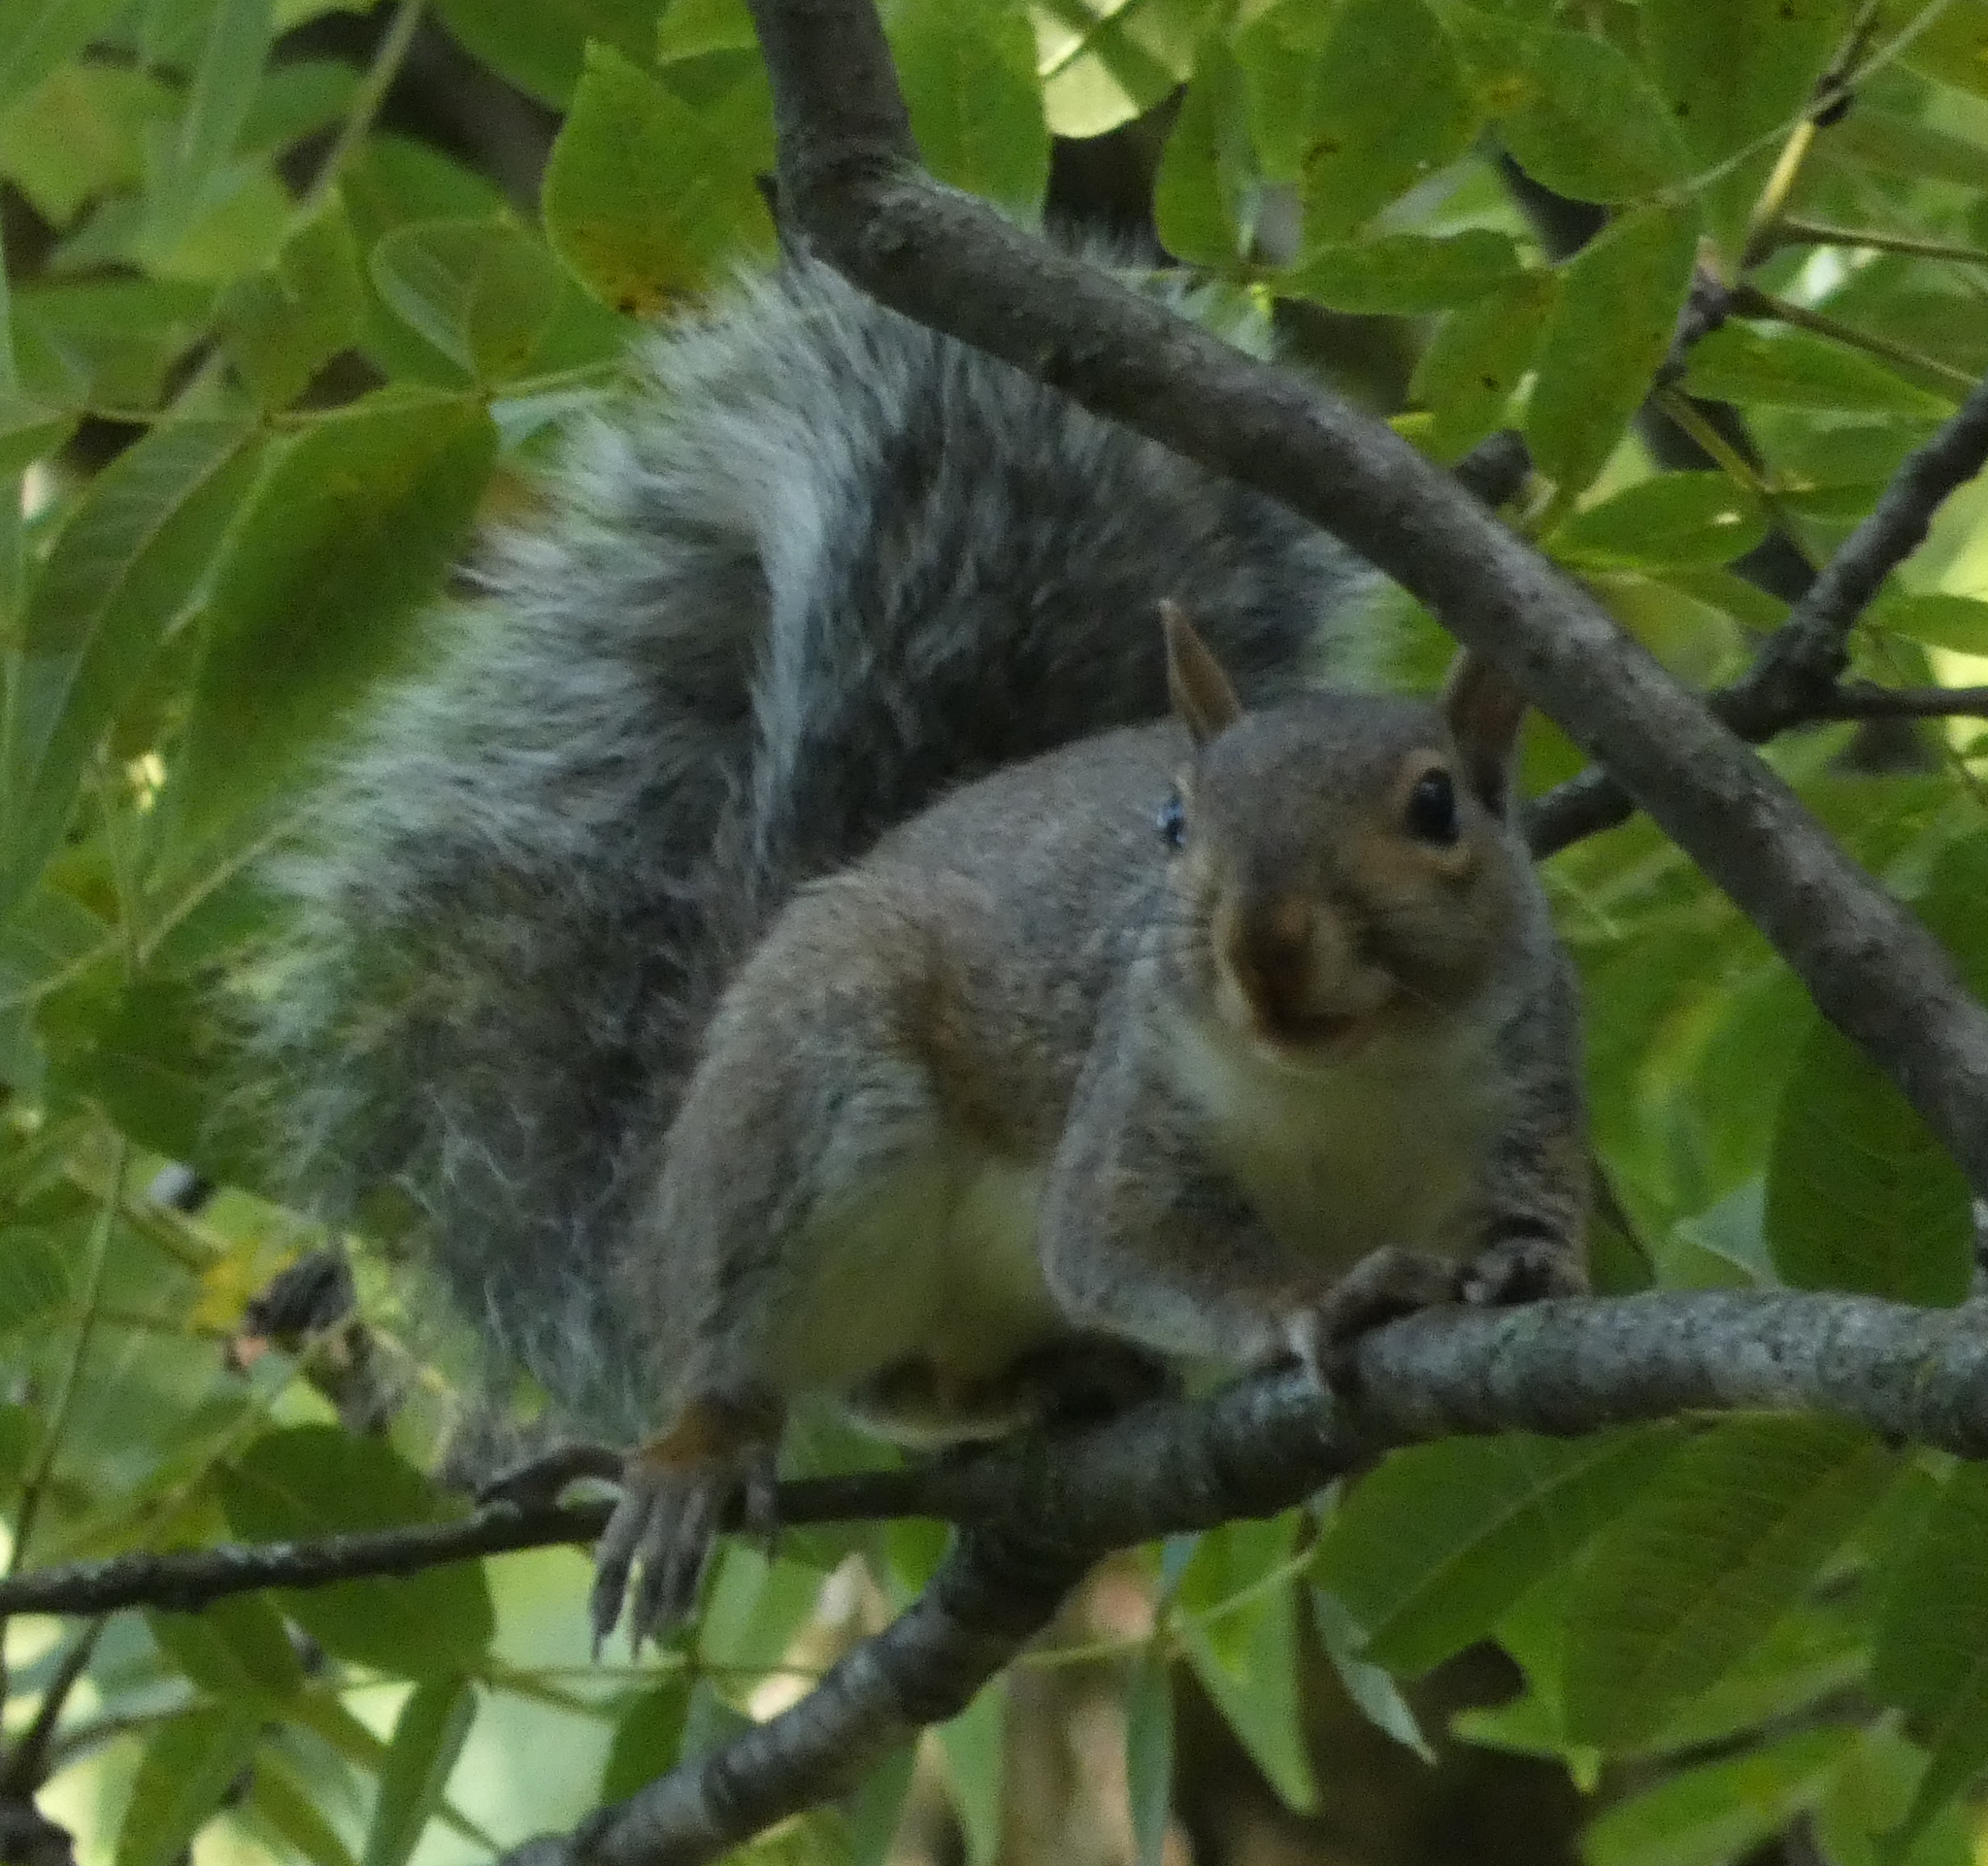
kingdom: Animalia
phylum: Chordata
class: Mammalia
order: Rodentia
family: Sciuridae
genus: Sciurus
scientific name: Sciurus carolinensis
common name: Eastern gray squirrel
